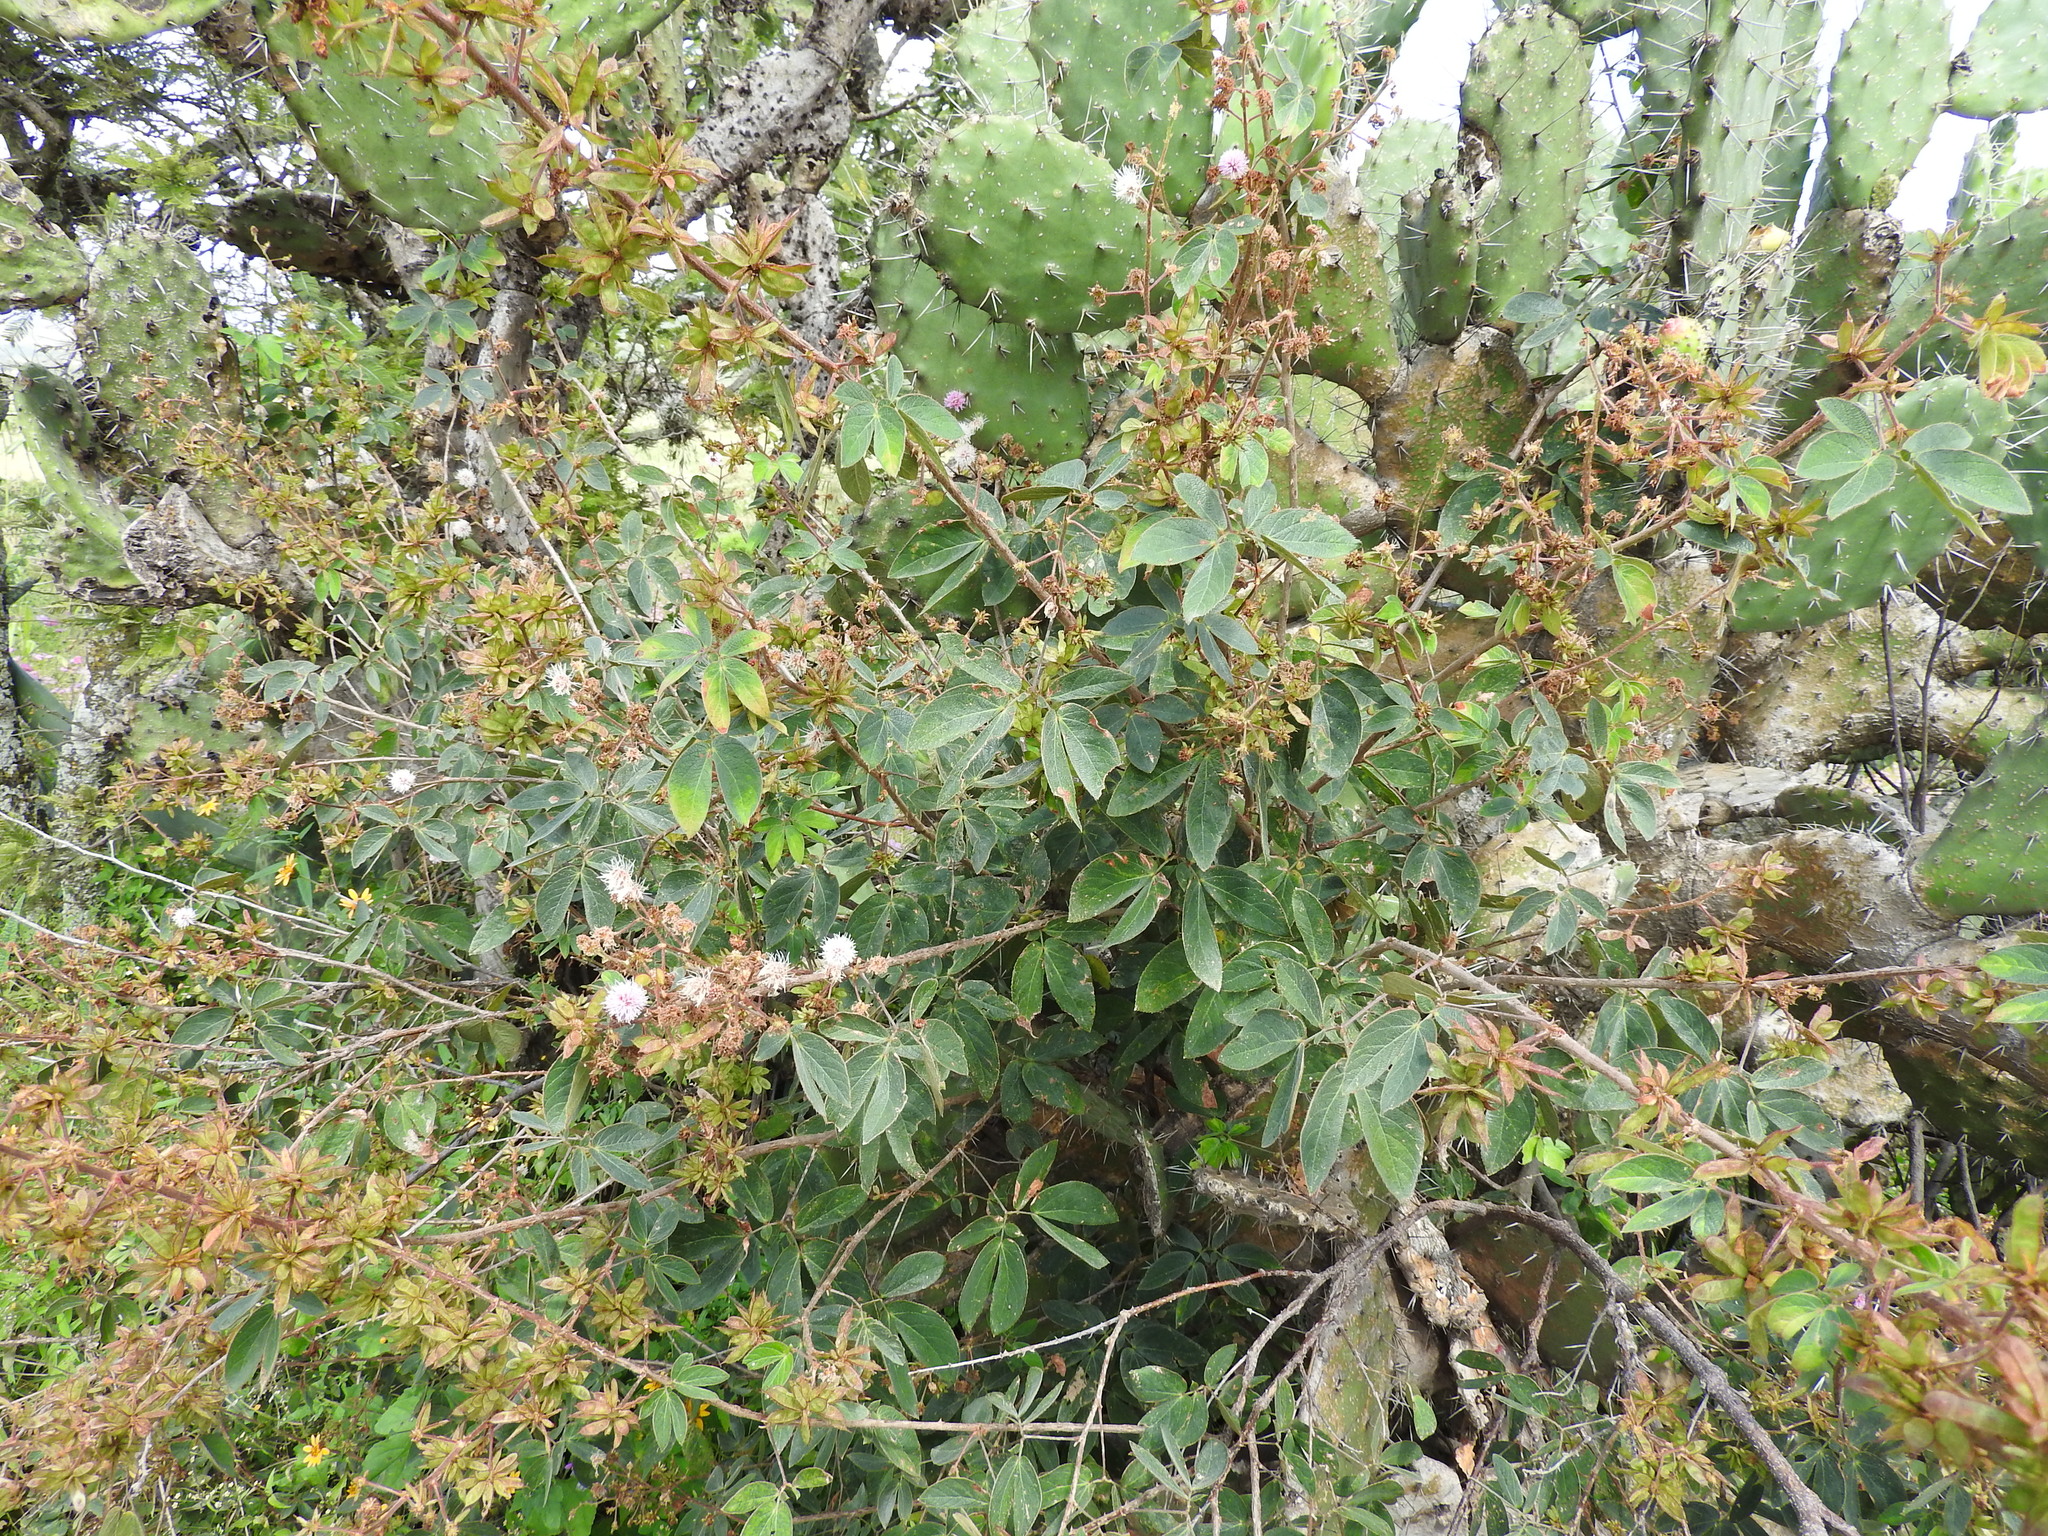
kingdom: Plantae
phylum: Tracheophyta
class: Magnoliopsida
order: Fabales
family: Fabaceae
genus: Mimosa
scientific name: Mimosa albida
